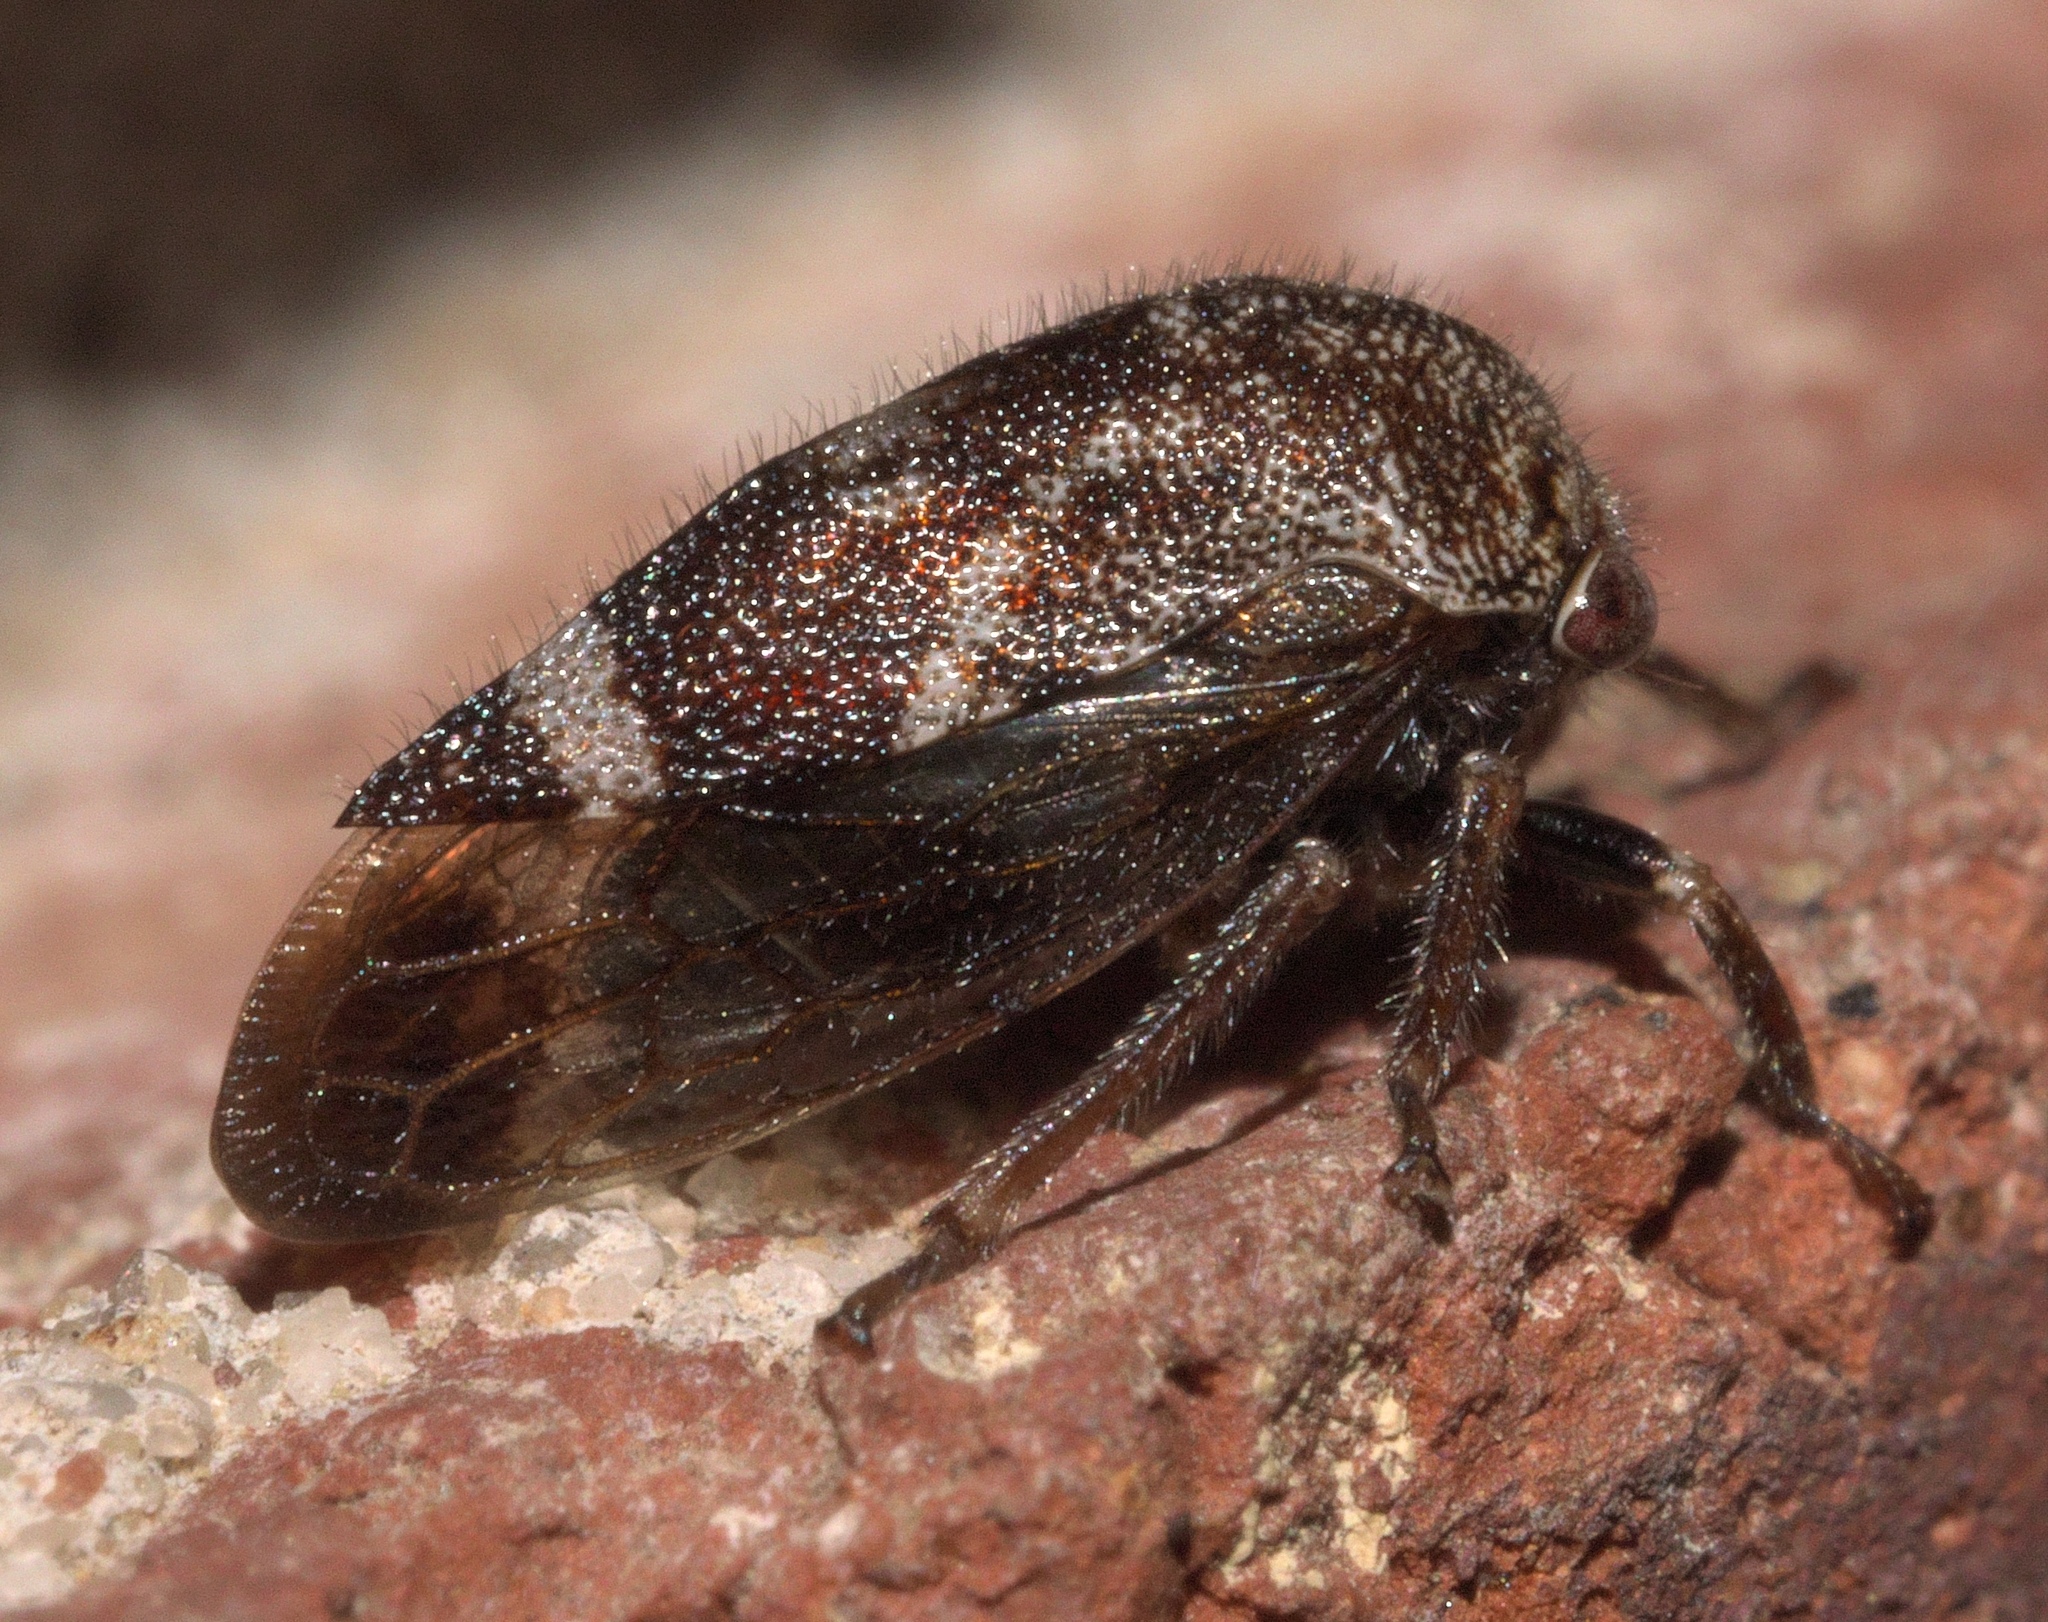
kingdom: Animalia
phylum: Arthropoda
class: Insecta
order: Hemiptera
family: Membracidae
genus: Ophiderma
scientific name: Ophiderma salamandra
